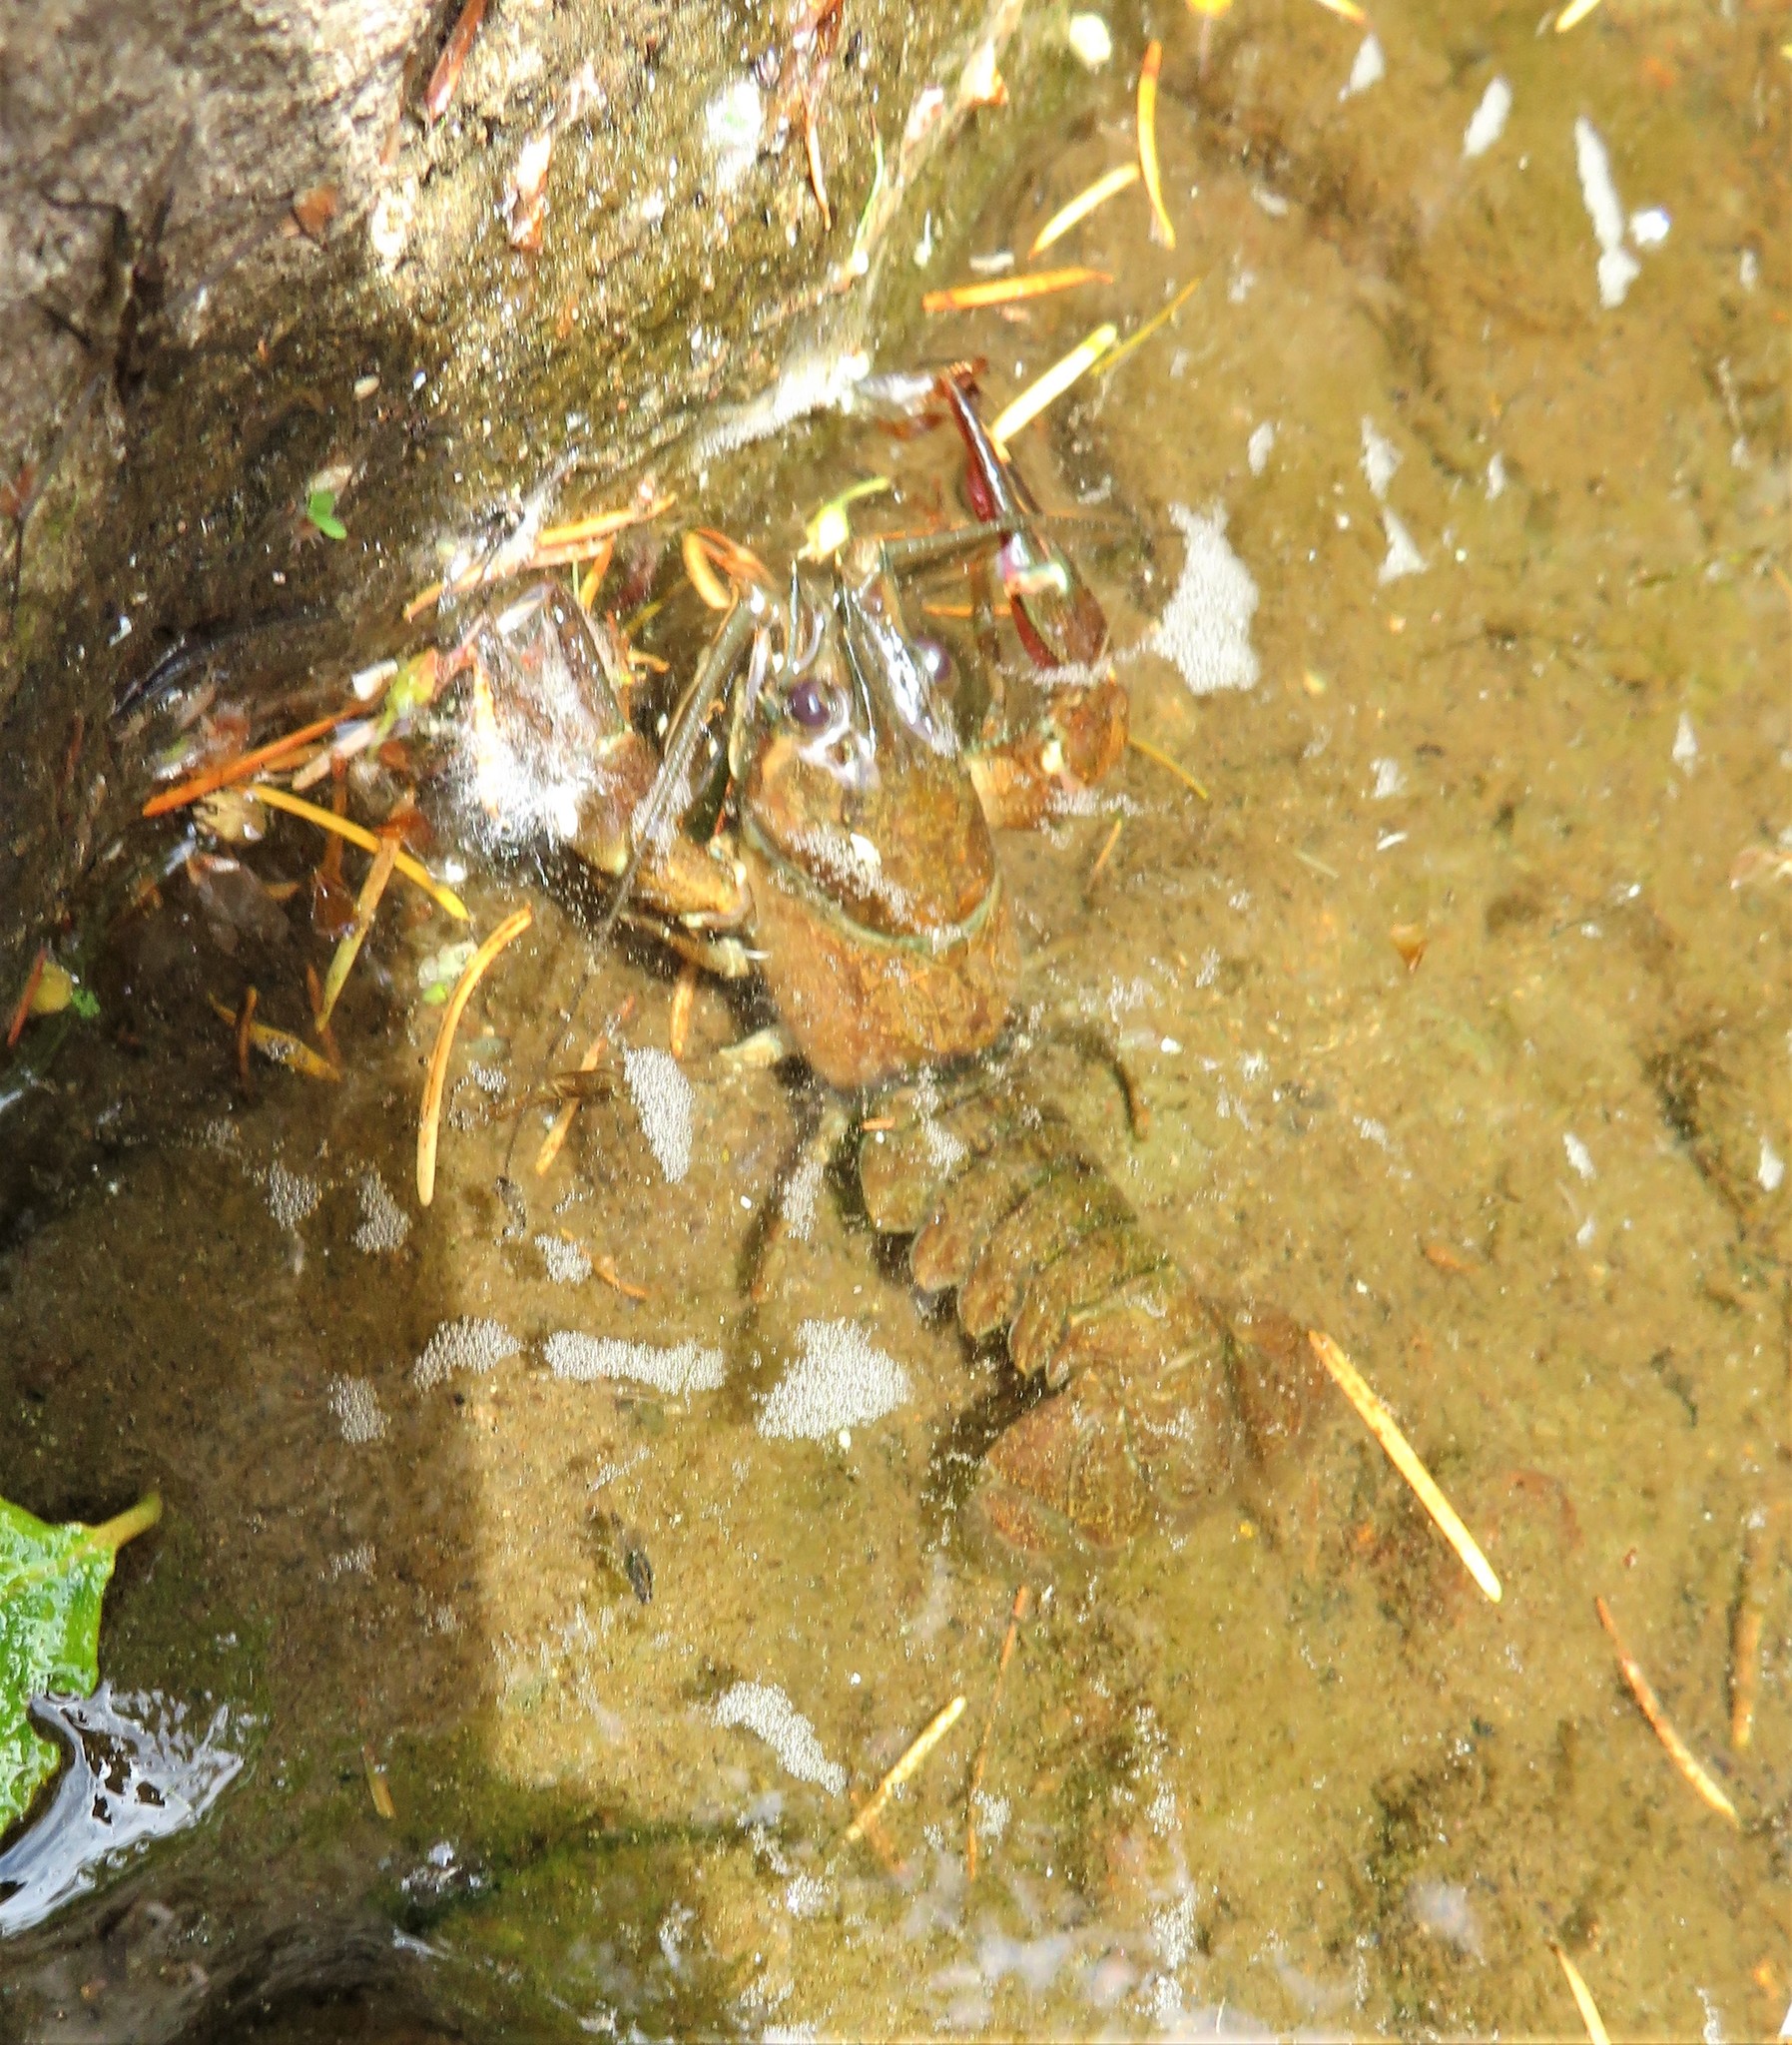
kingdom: Animalia
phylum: Arthropoda
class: Malacostraca
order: Decapoda
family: Astacidae
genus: Pacifastacus
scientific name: Pacifastacus leniusculus
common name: Signal crayfish
